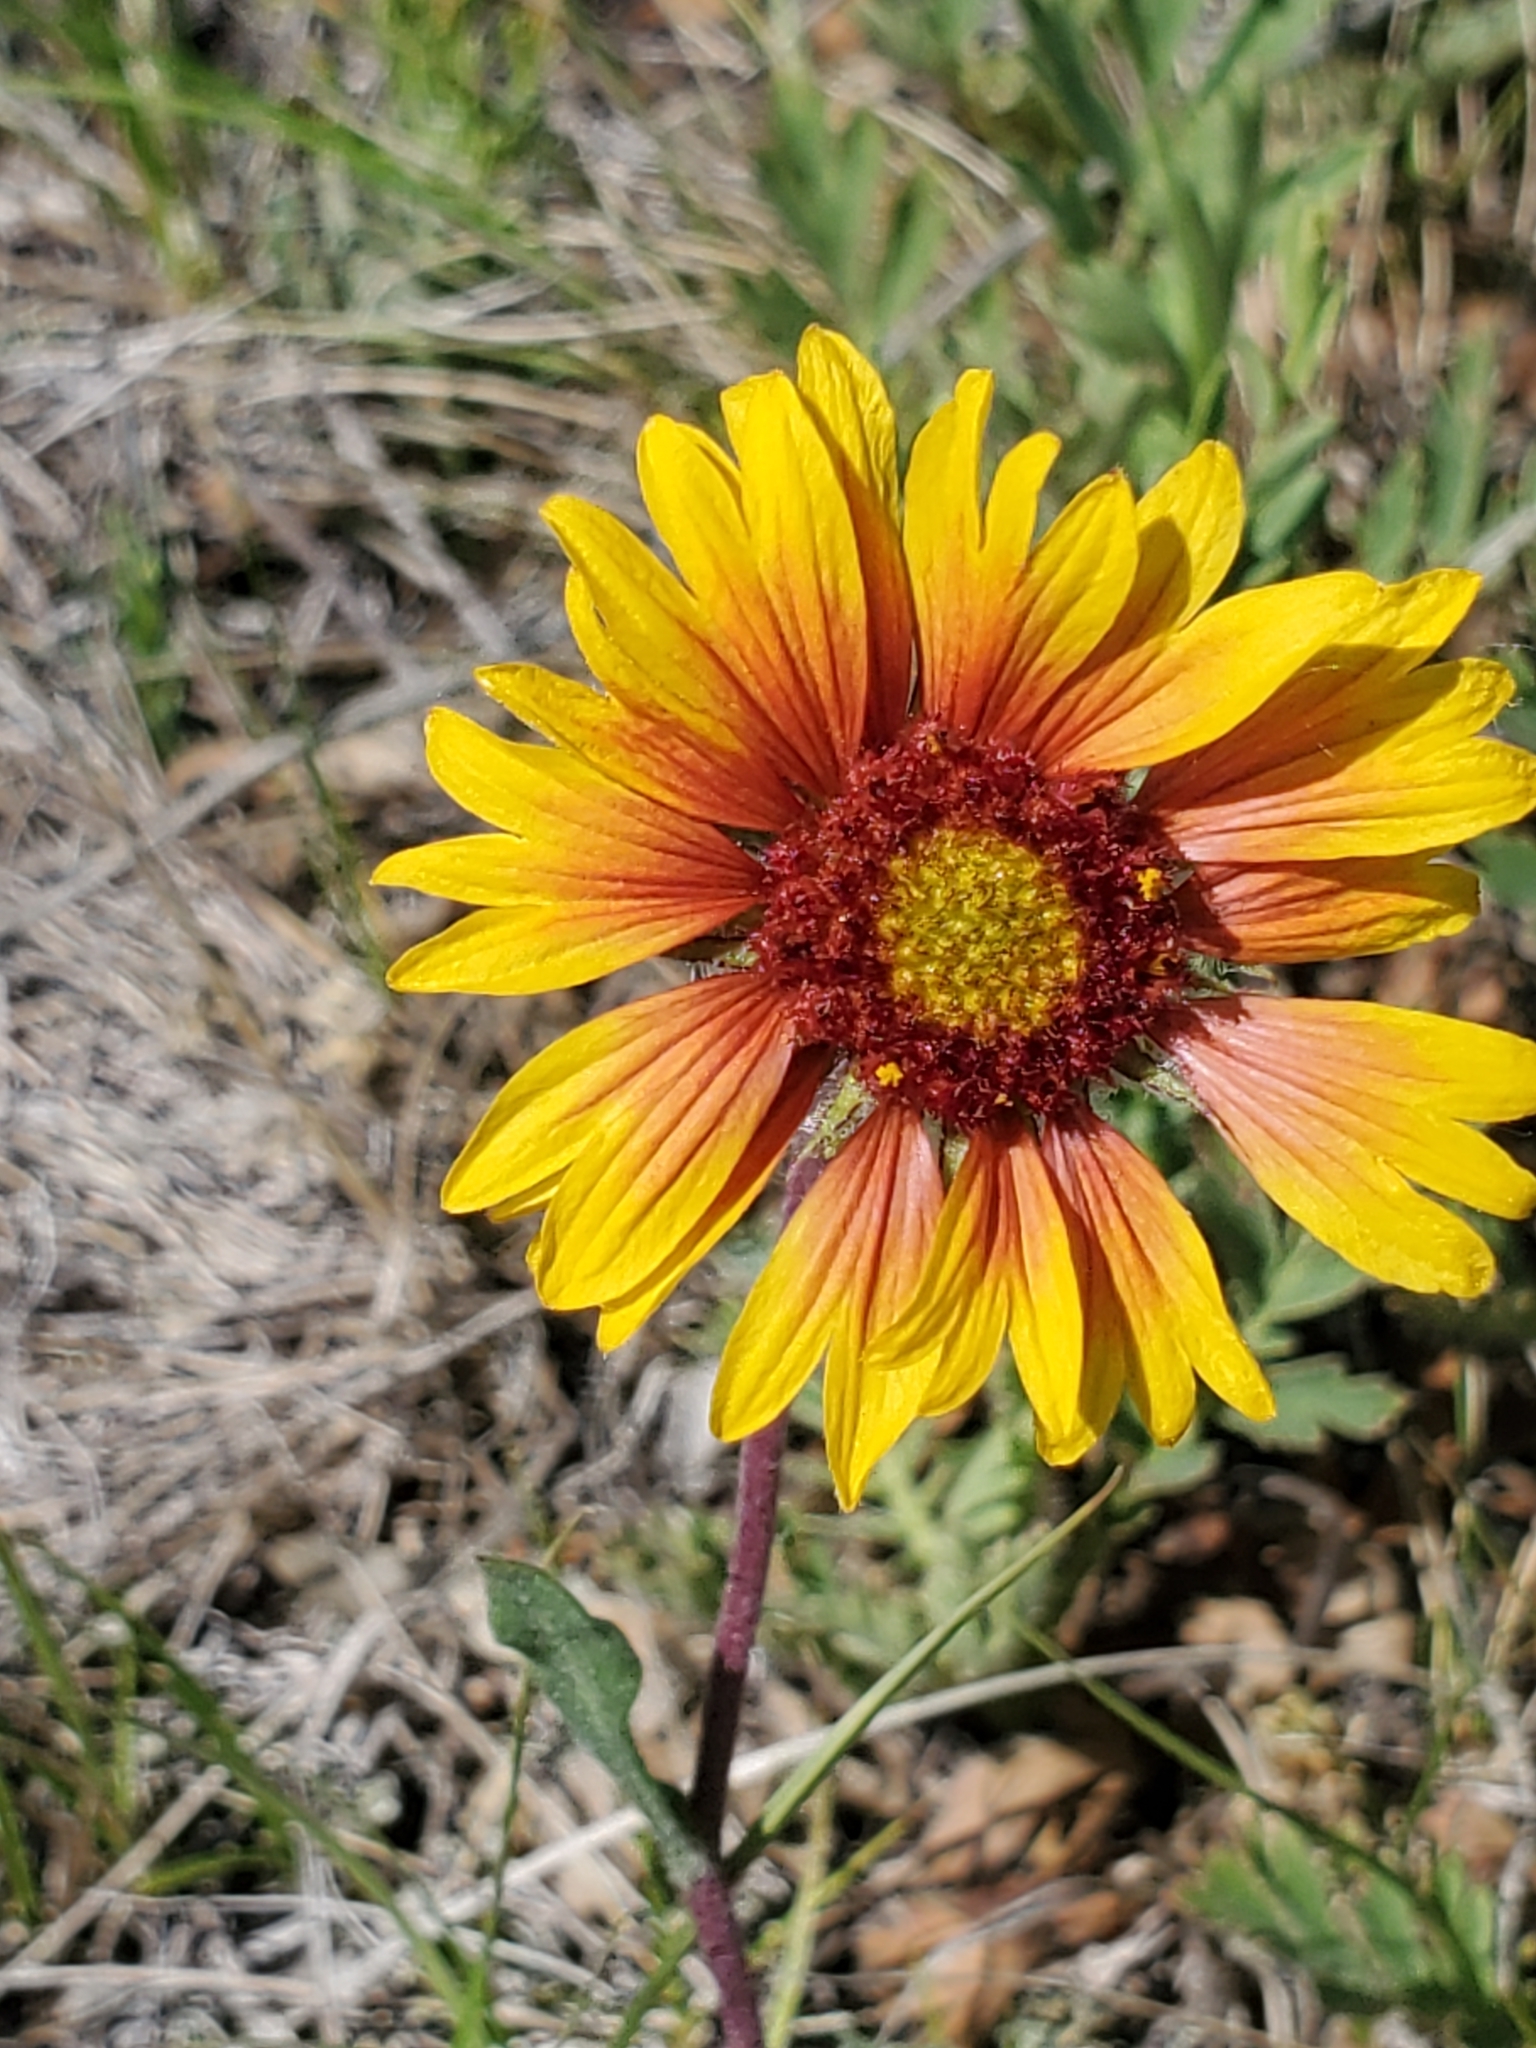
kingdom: Plantae
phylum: Tracheophyta
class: Magnoliopsida
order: Asterales
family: Asteraceae
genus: Gaillardia
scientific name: Gaillardia aristata
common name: Blanket-flower
